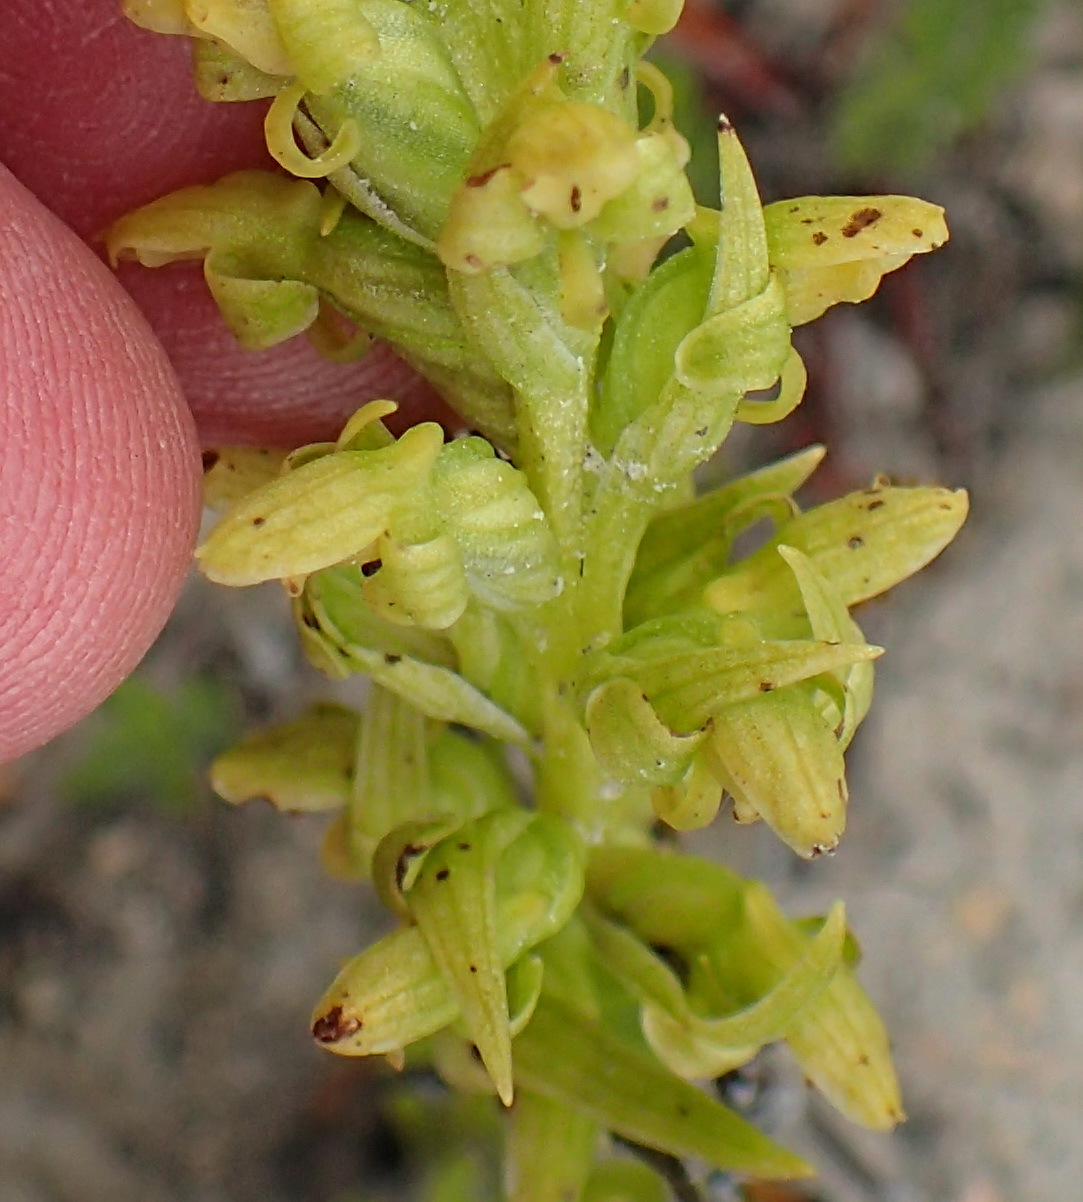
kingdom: Plantae
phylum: Tracheophyta
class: Liliopsida
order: Asparagales
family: Orchidaceae
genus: Disa
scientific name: Disa cylindrica
